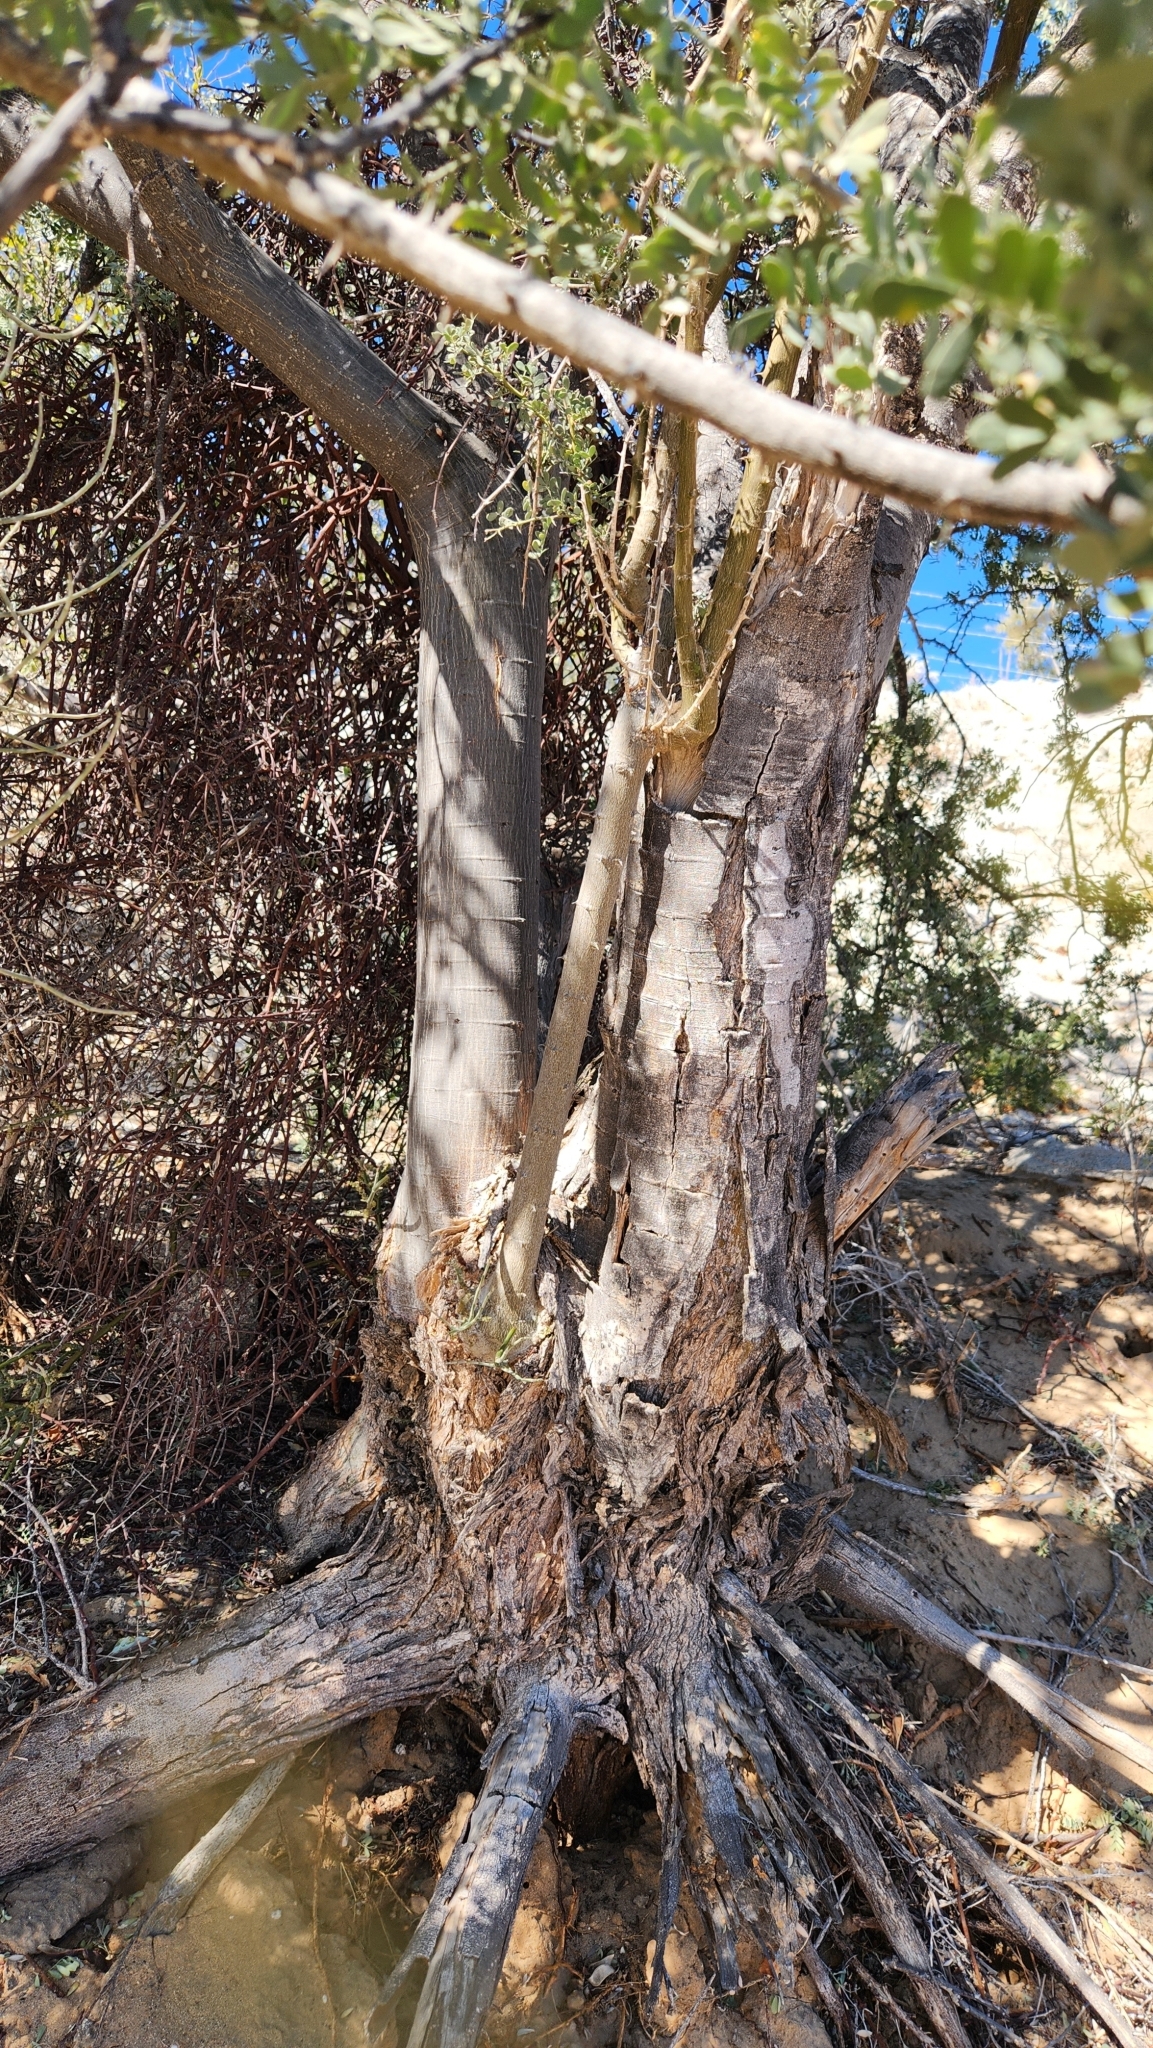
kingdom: Plantae
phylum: Tracheophyta
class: Magnoliopsida
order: Fabales
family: Fabaceae
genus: Olneya
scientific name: Olneya tesota
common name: Desert ironwood
